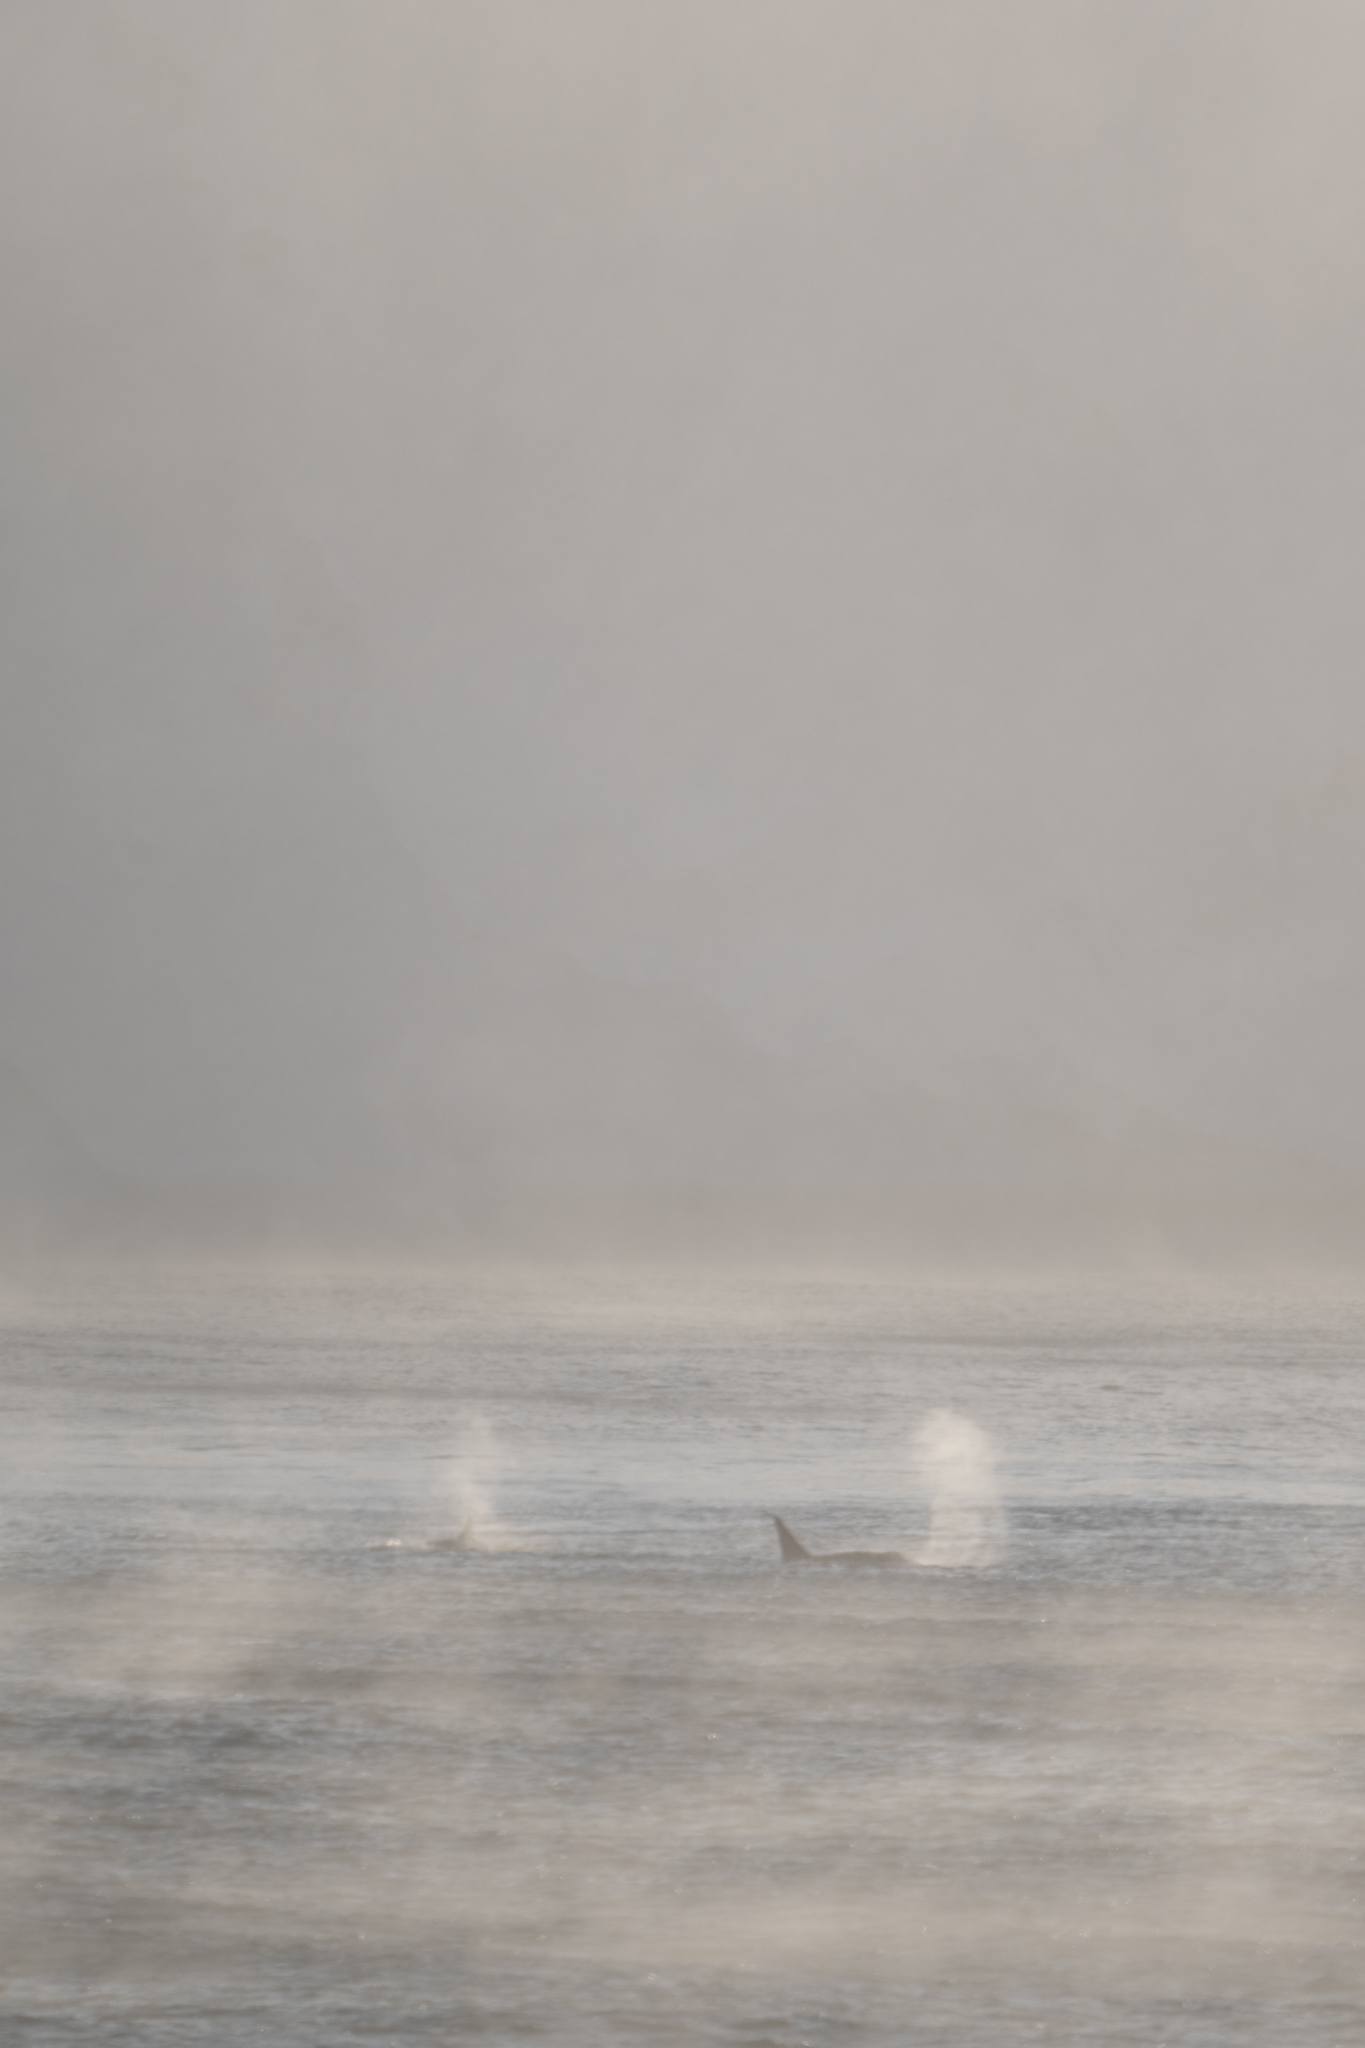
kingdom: Animalia
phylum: Chordata
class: Mammalia
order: Cetacea
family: Delphinidae
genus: Orcinus
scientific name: Orcinus orca
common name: Killer whale
